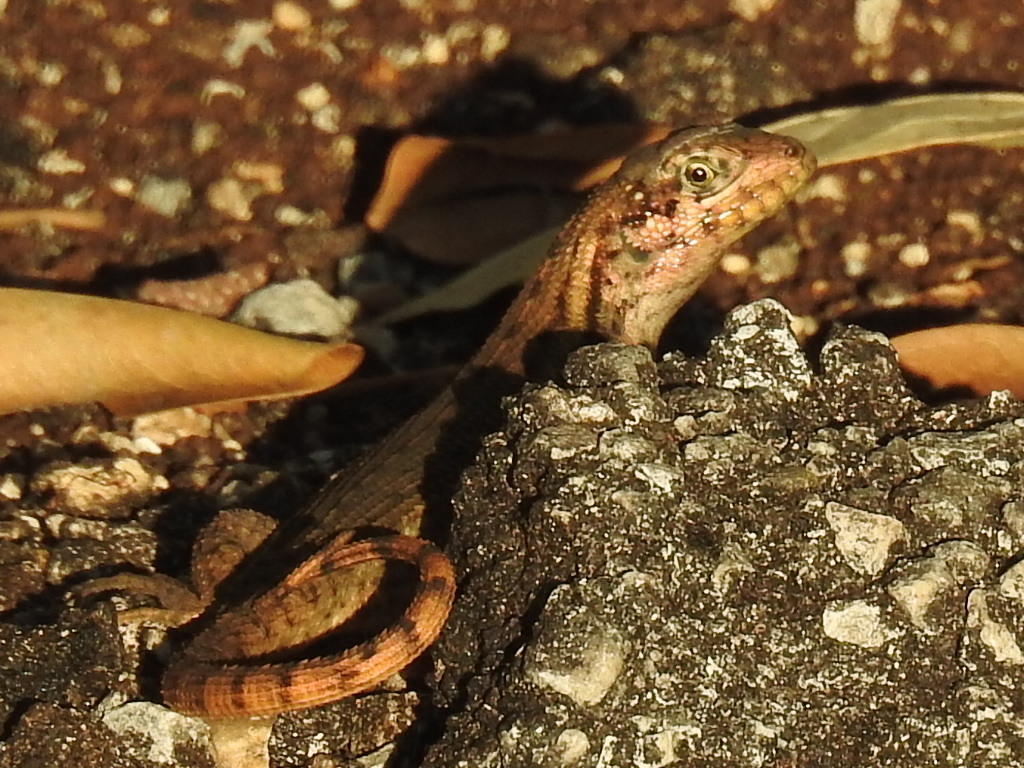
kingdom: Animalia
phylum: Chordata
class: Squamata
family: Leiocephalidae
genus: Leiocephalus
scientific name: Leiocephalus carinatus
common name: Northern curly-tailed lizard
